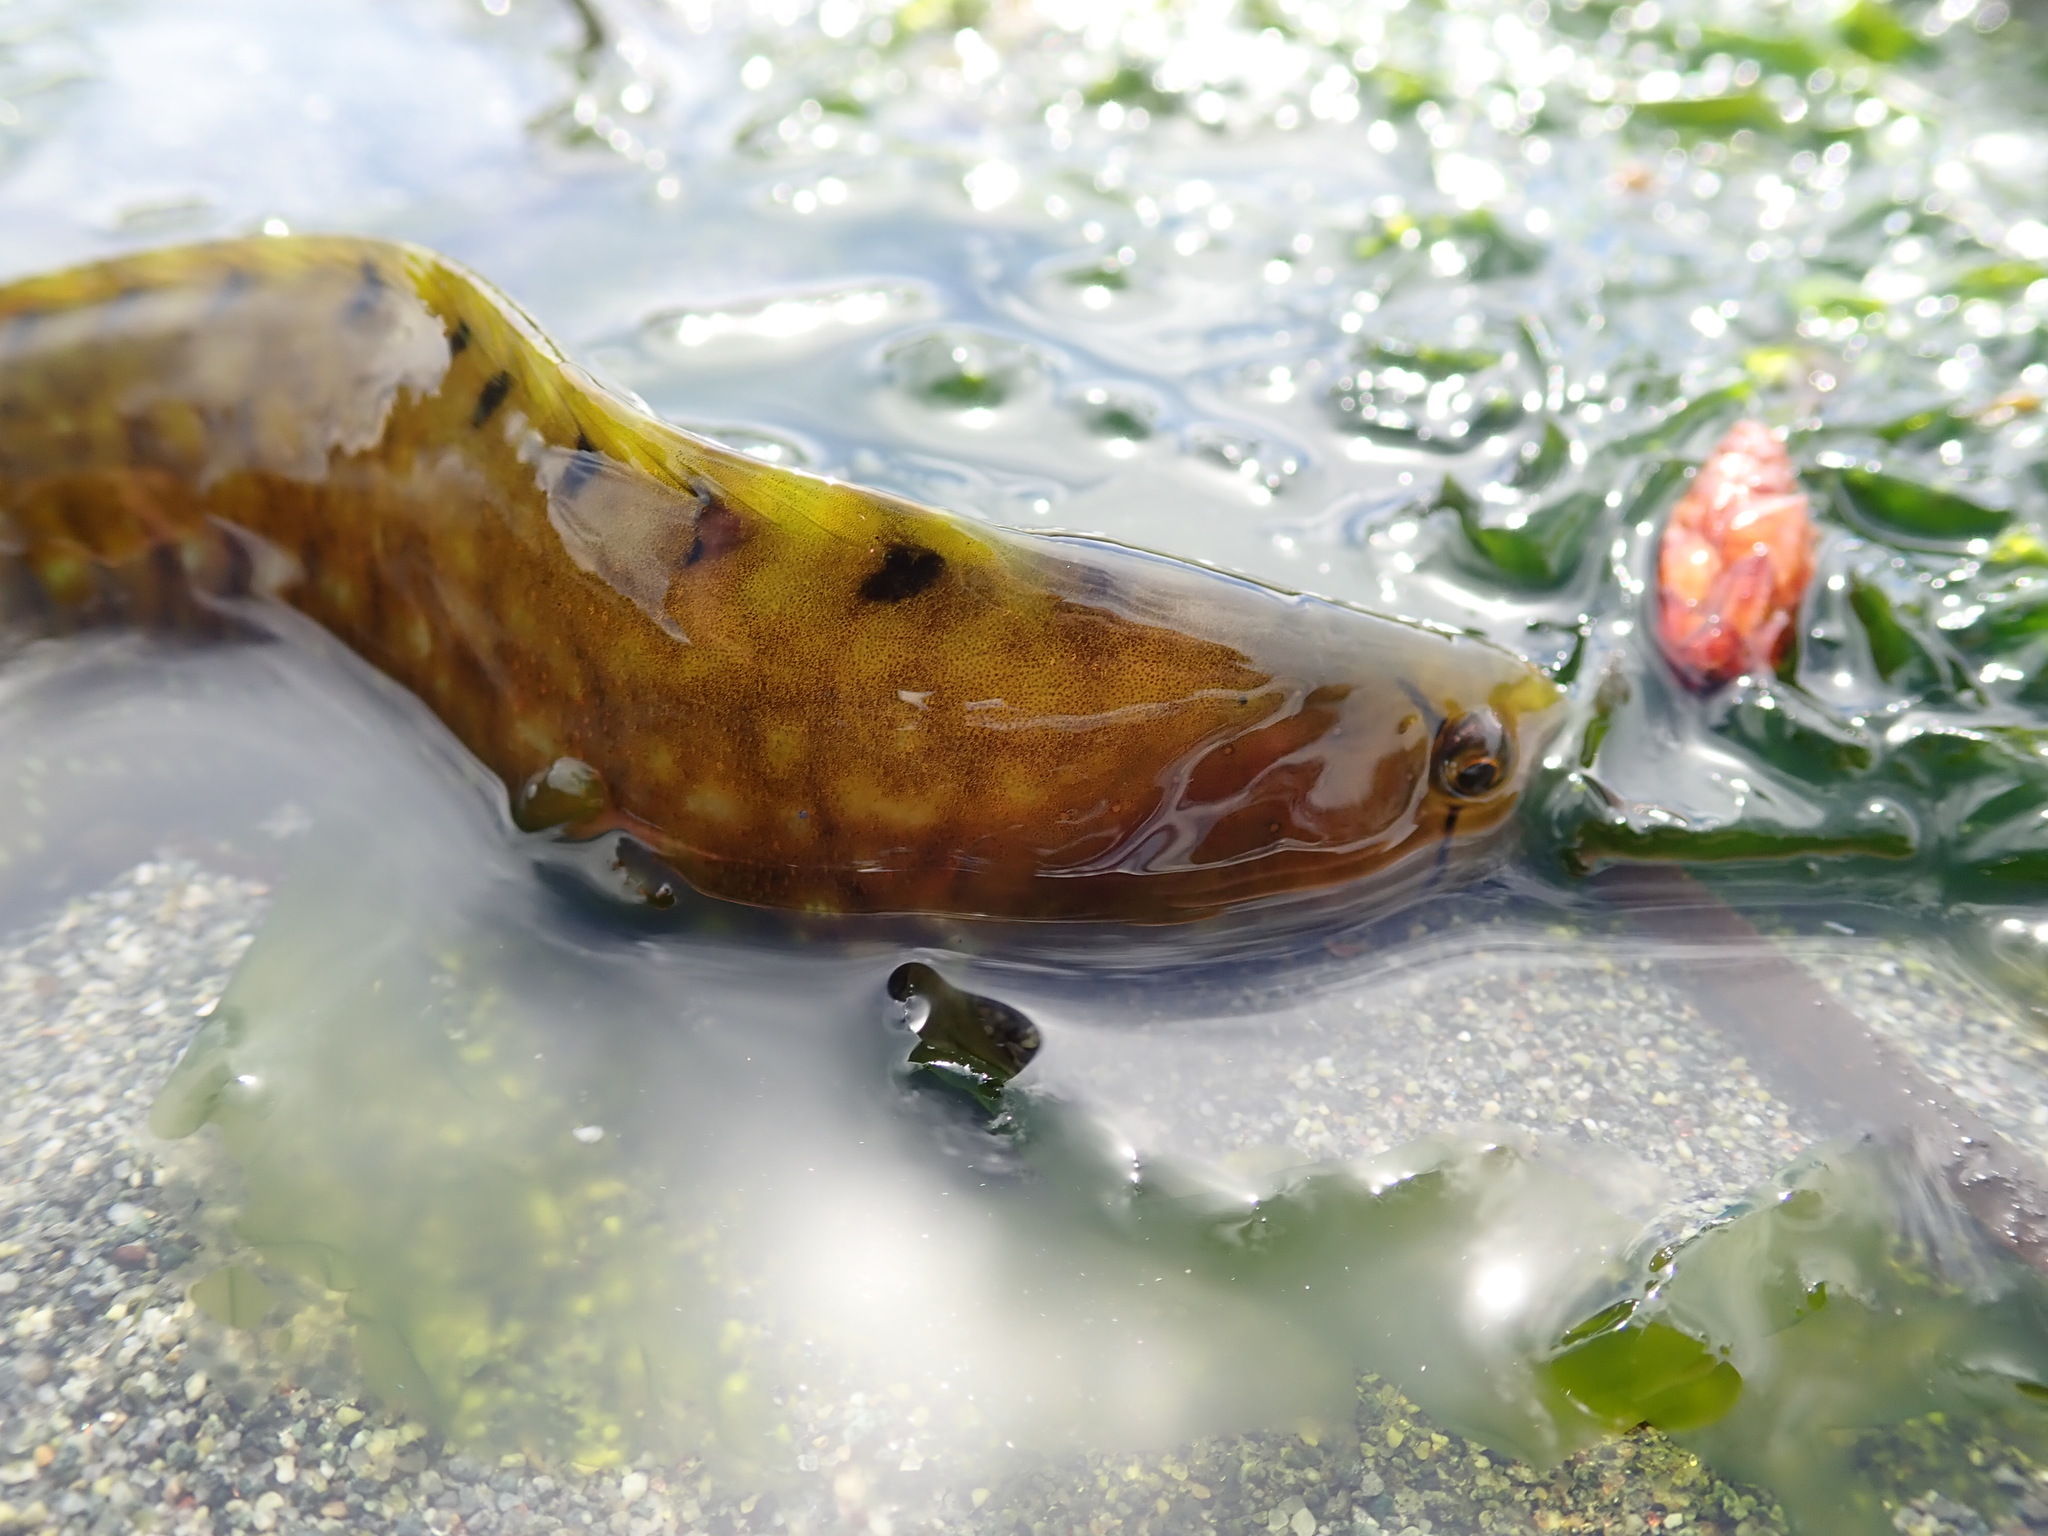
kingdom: Animalia
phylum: Chordata
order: Perciformes
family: Pholidae
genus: Apodichthys
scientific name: Apodichthys flavidus
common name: Penpoint gunnel
